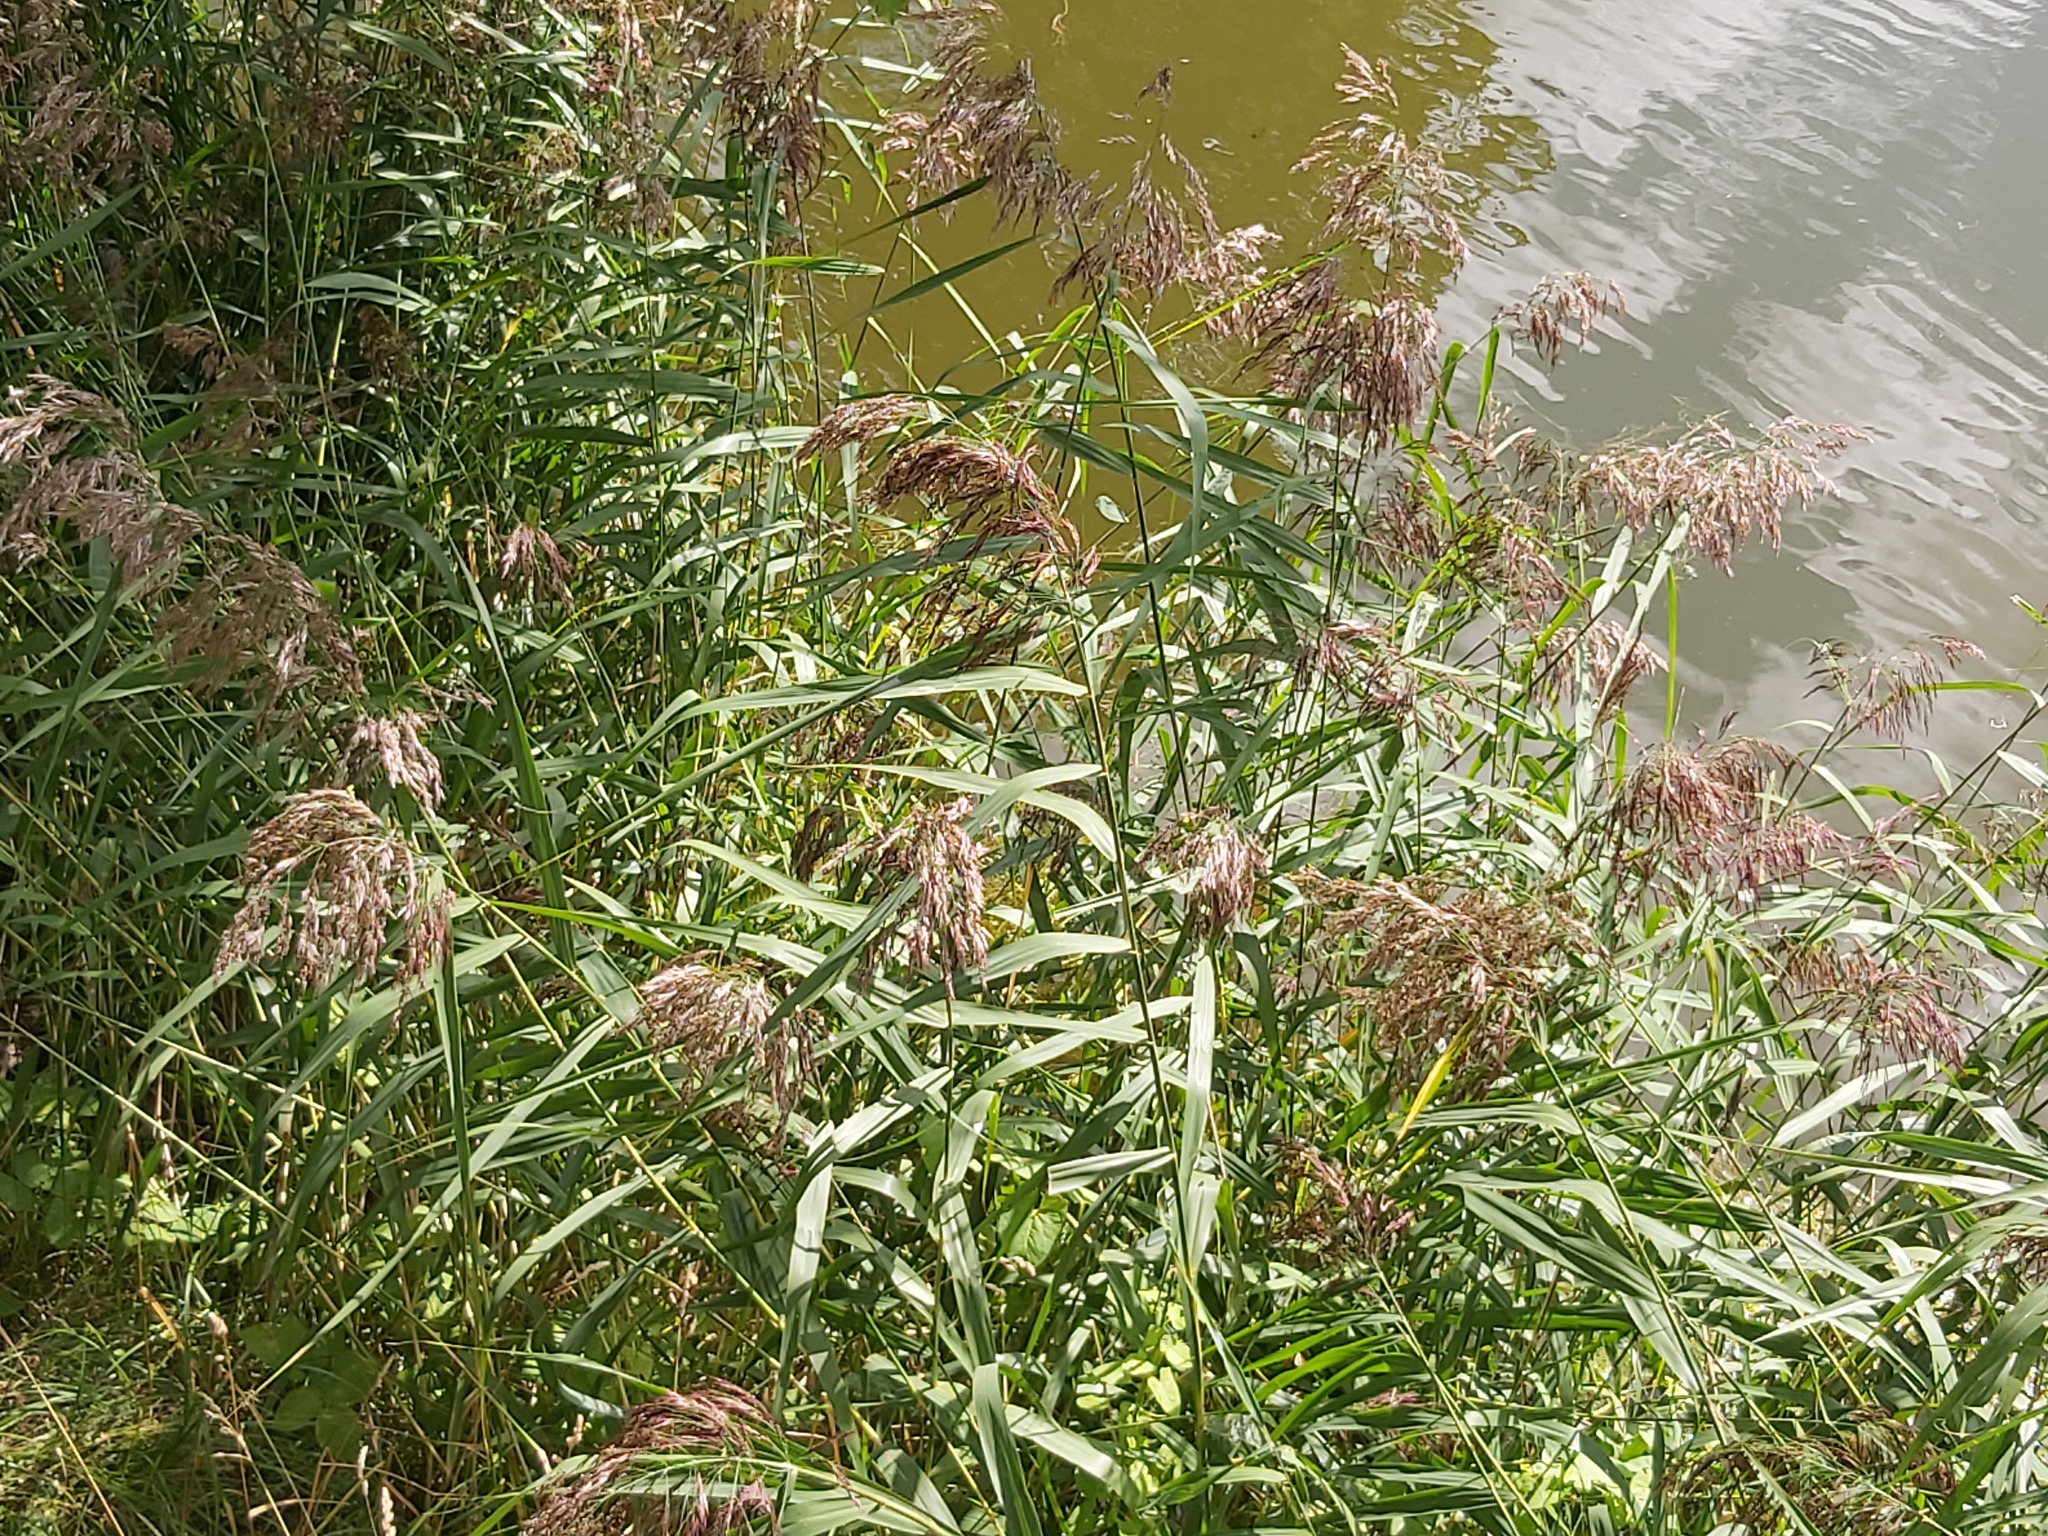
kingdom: Plantae
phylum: Tracheophyta
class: Liliopsida
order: Poales
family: Poaceae
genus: Phragmites
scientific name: Phragmites australis
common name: Common reed
